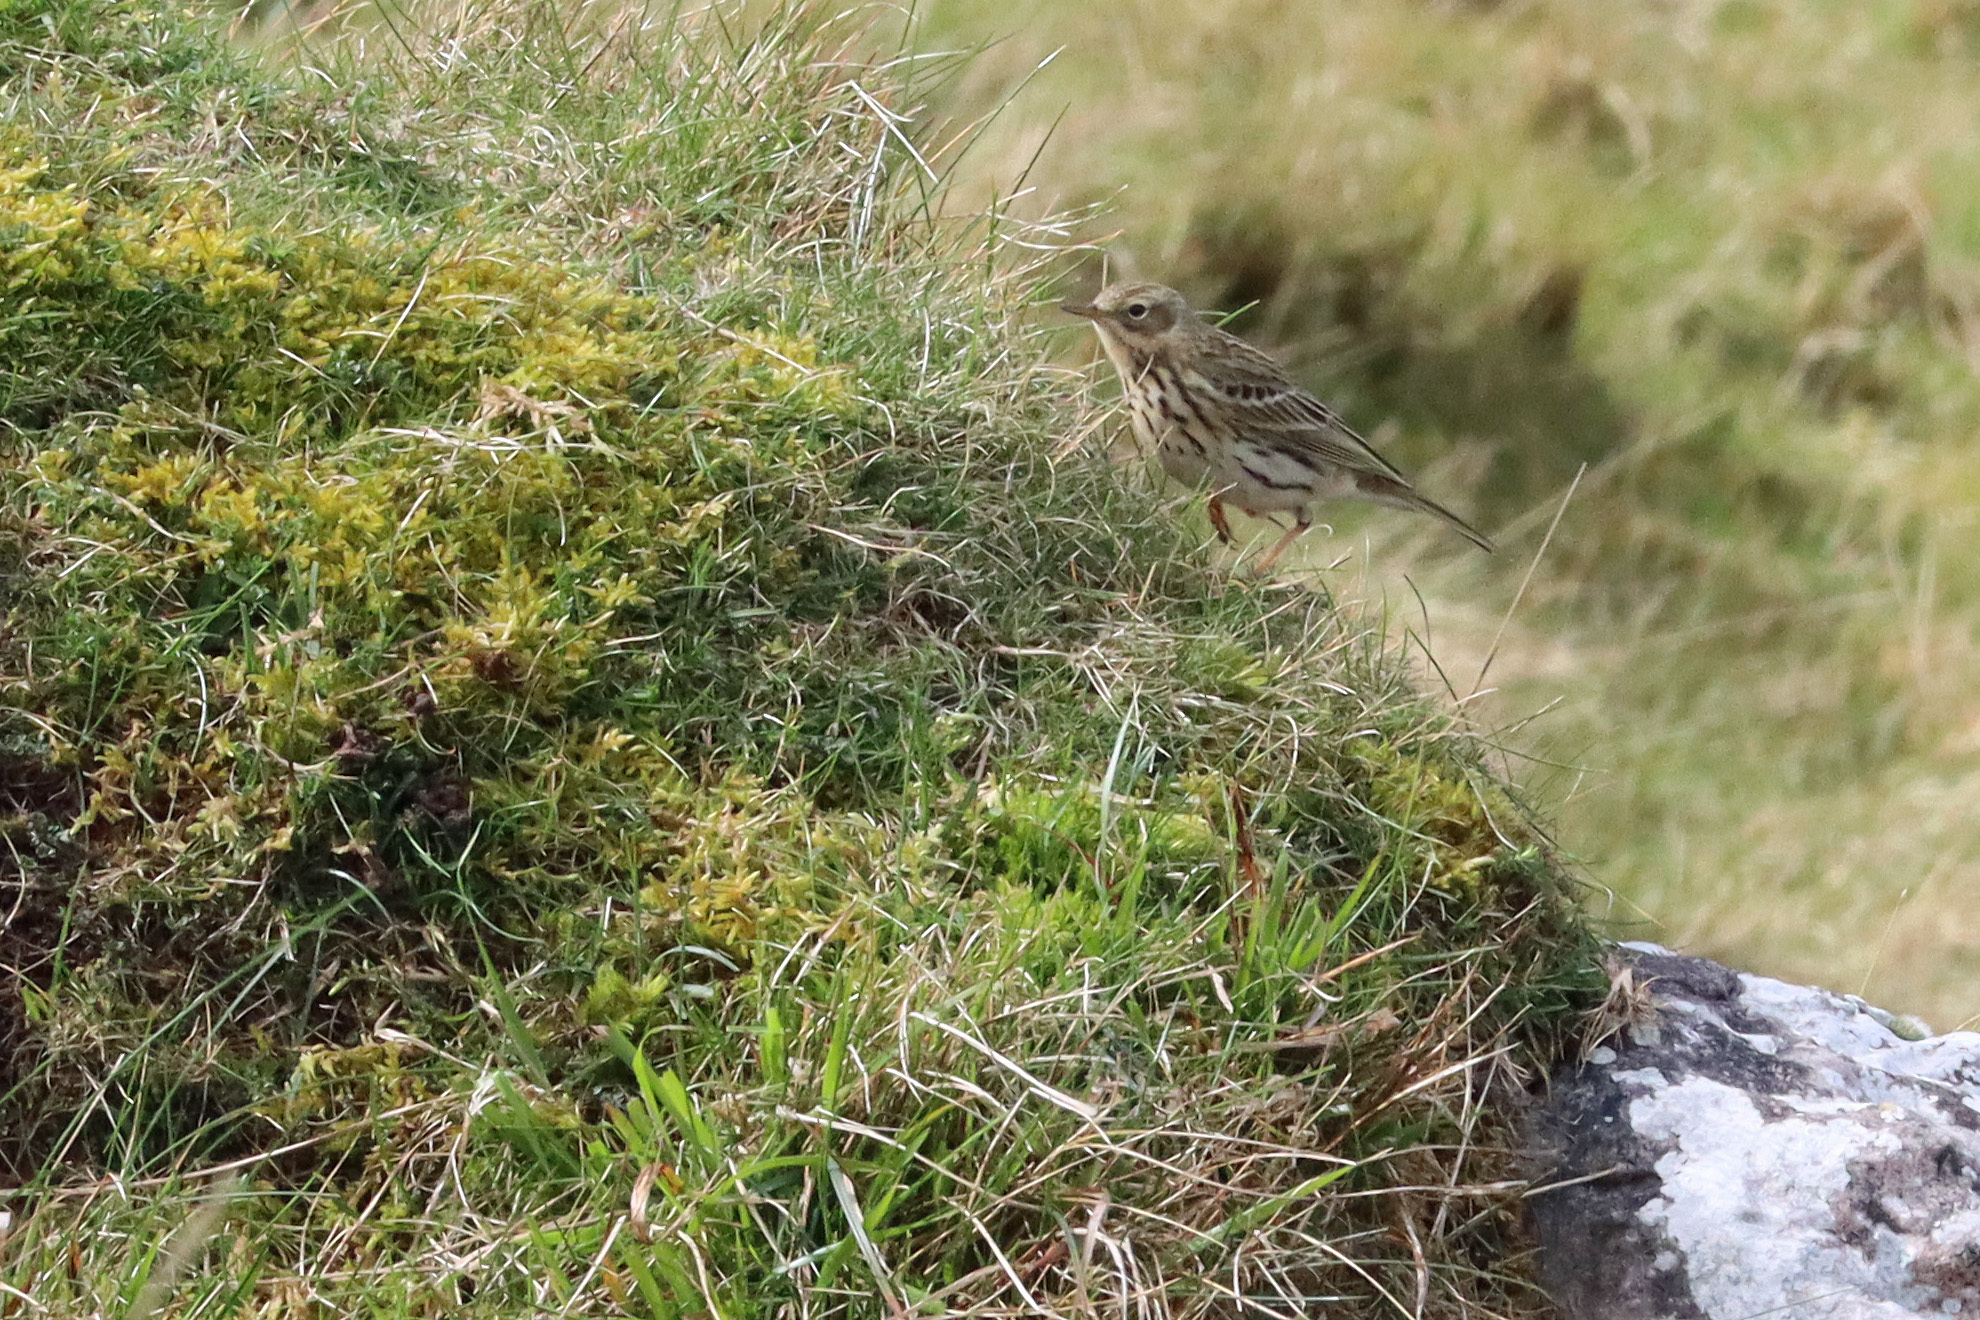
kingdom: Animalia
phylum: Chordata
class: Aves
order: Passeriformes
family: Motacillidae
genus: Anthus
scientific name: Anthus pratensis
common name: Meadow pipit
